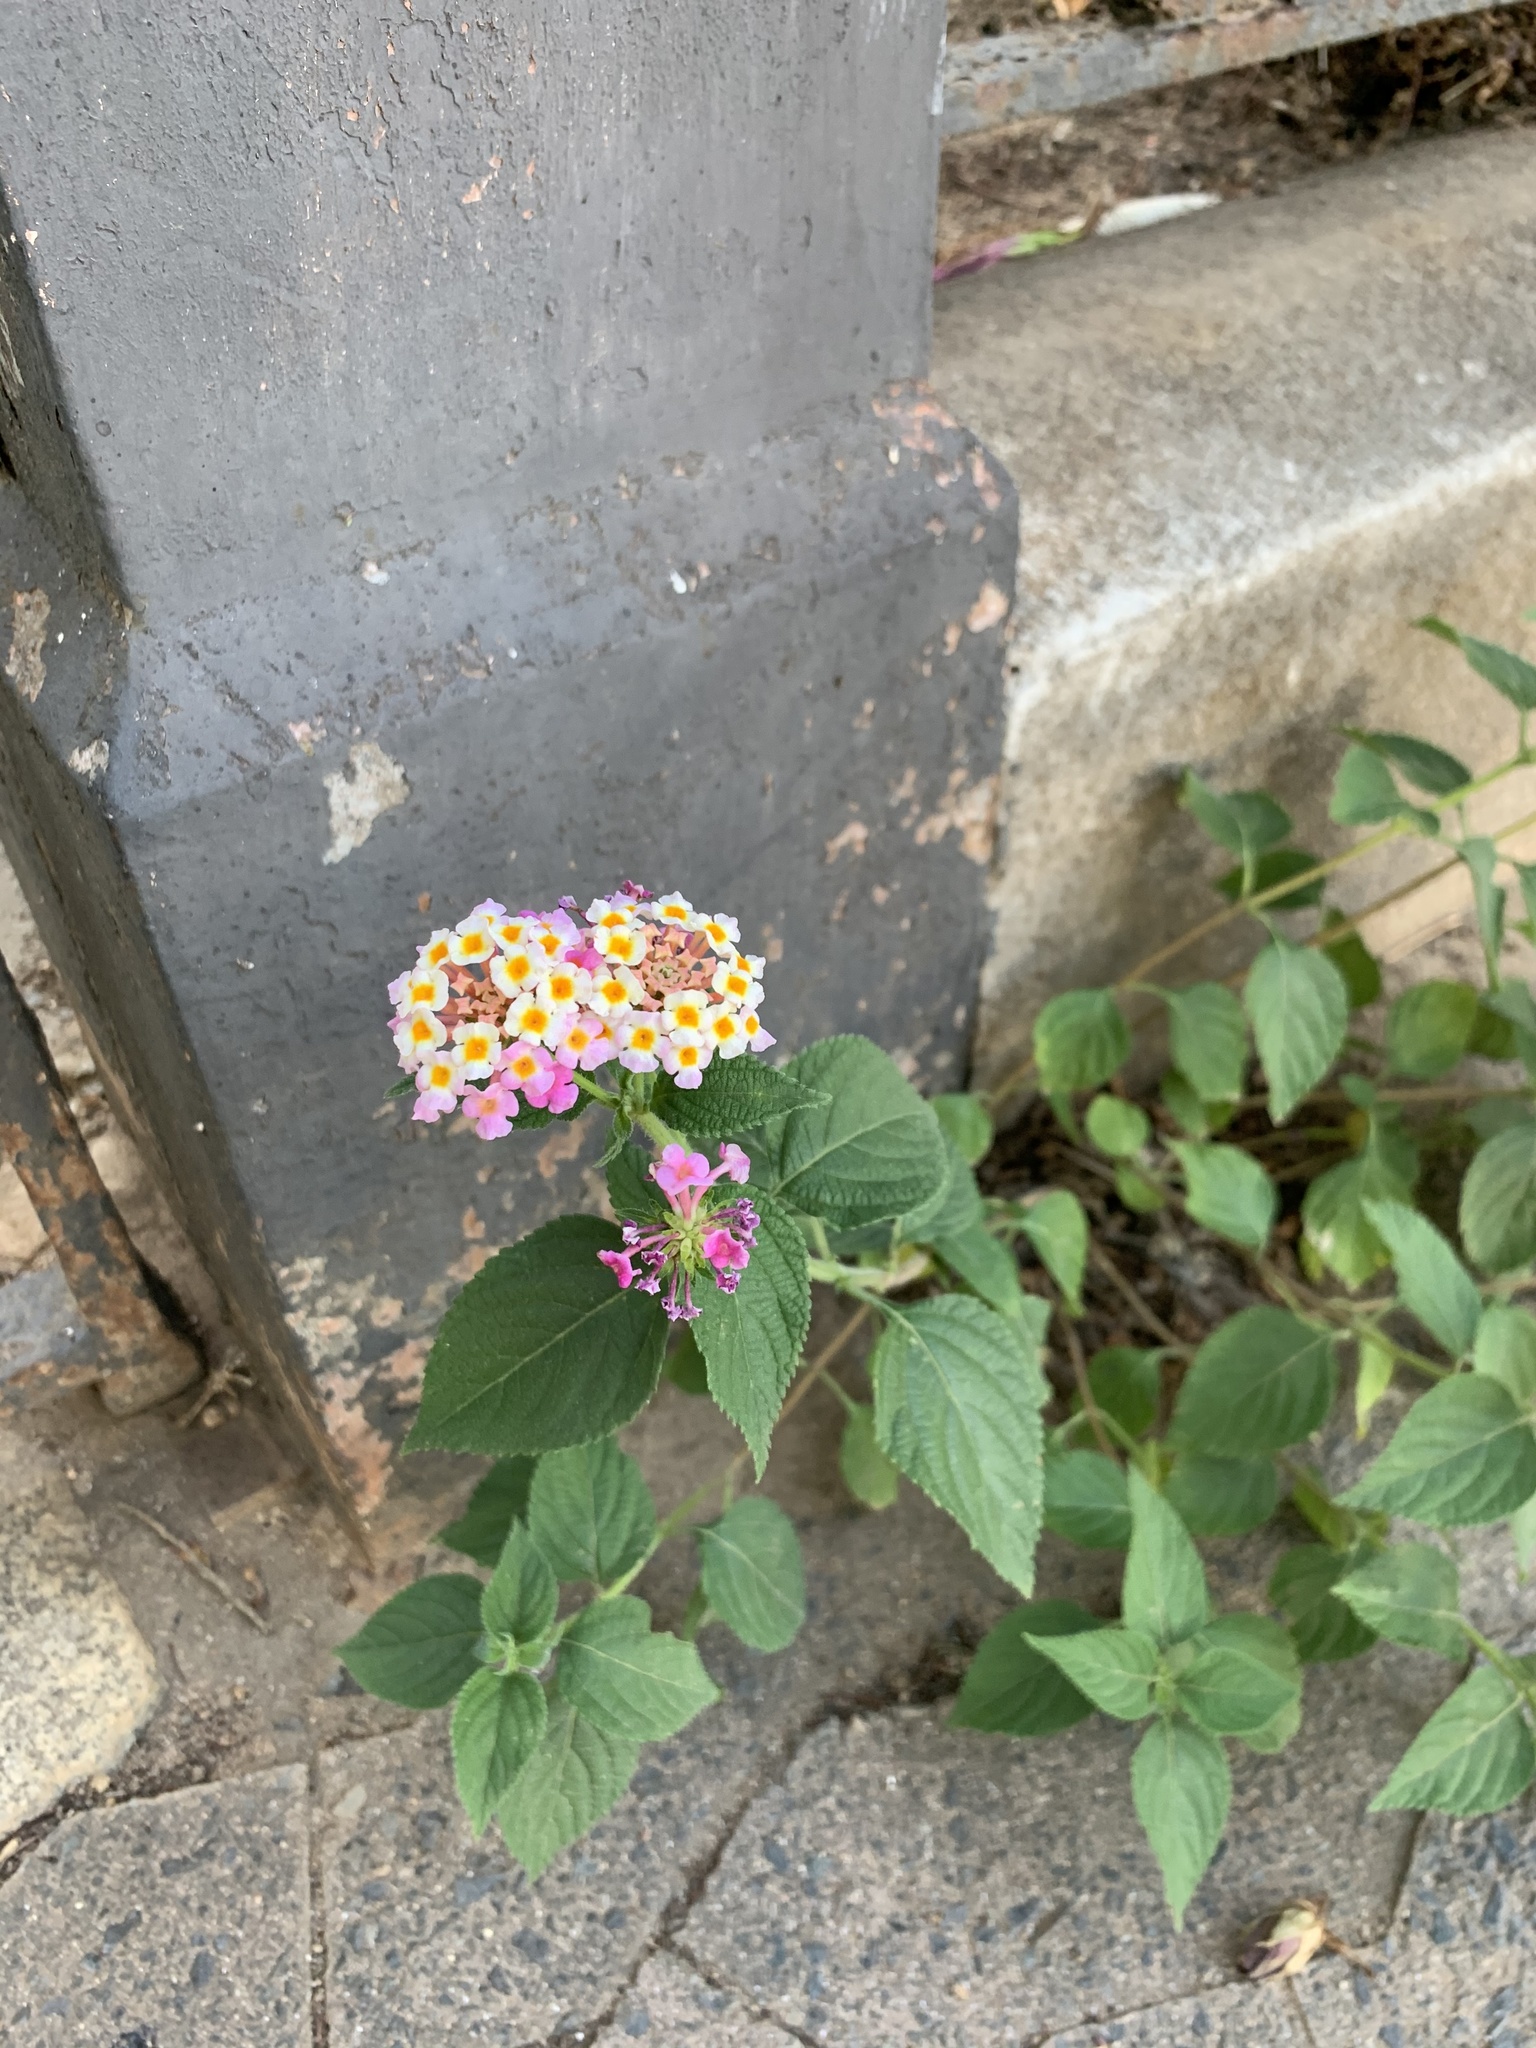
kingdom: Plantae
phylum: Tracheophyta
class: Magnoliopsida
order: Lamiales
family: Verbenaceae
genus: Lantana
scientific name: Lantana camara
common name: Lantana
